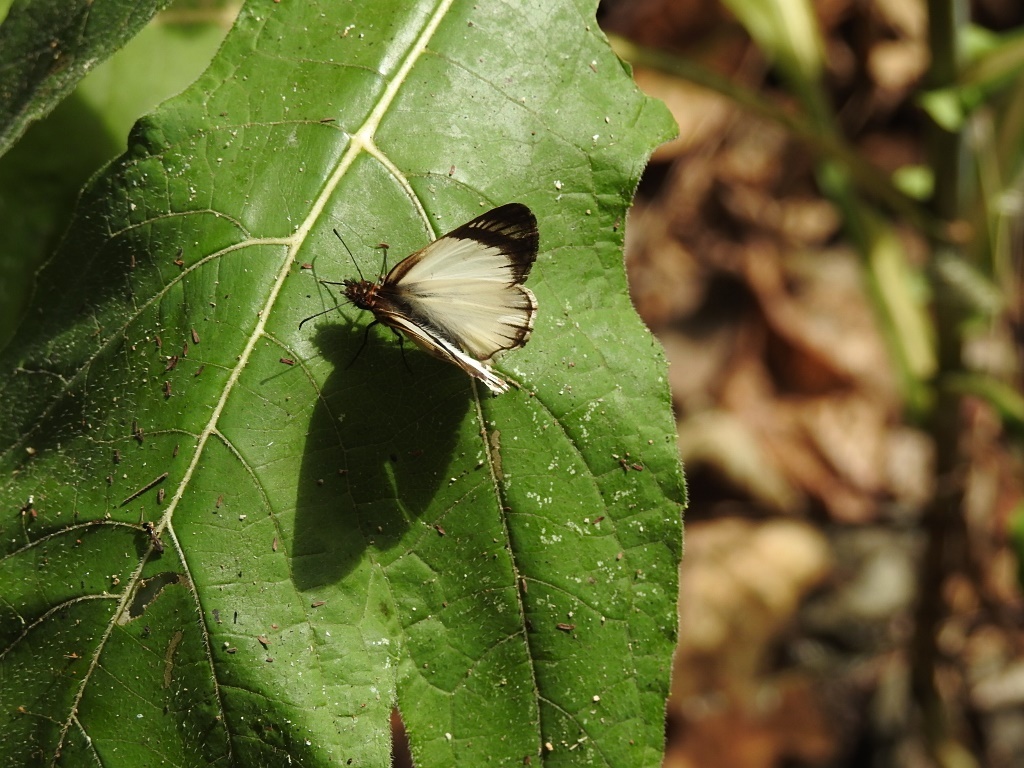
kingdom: Animalia
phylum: Arthropoda
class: Insecta
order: Lepidoptera
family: Hesperiidae
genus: Heliopetes
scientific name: Heliopetes alana
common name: Alana white-skipper
